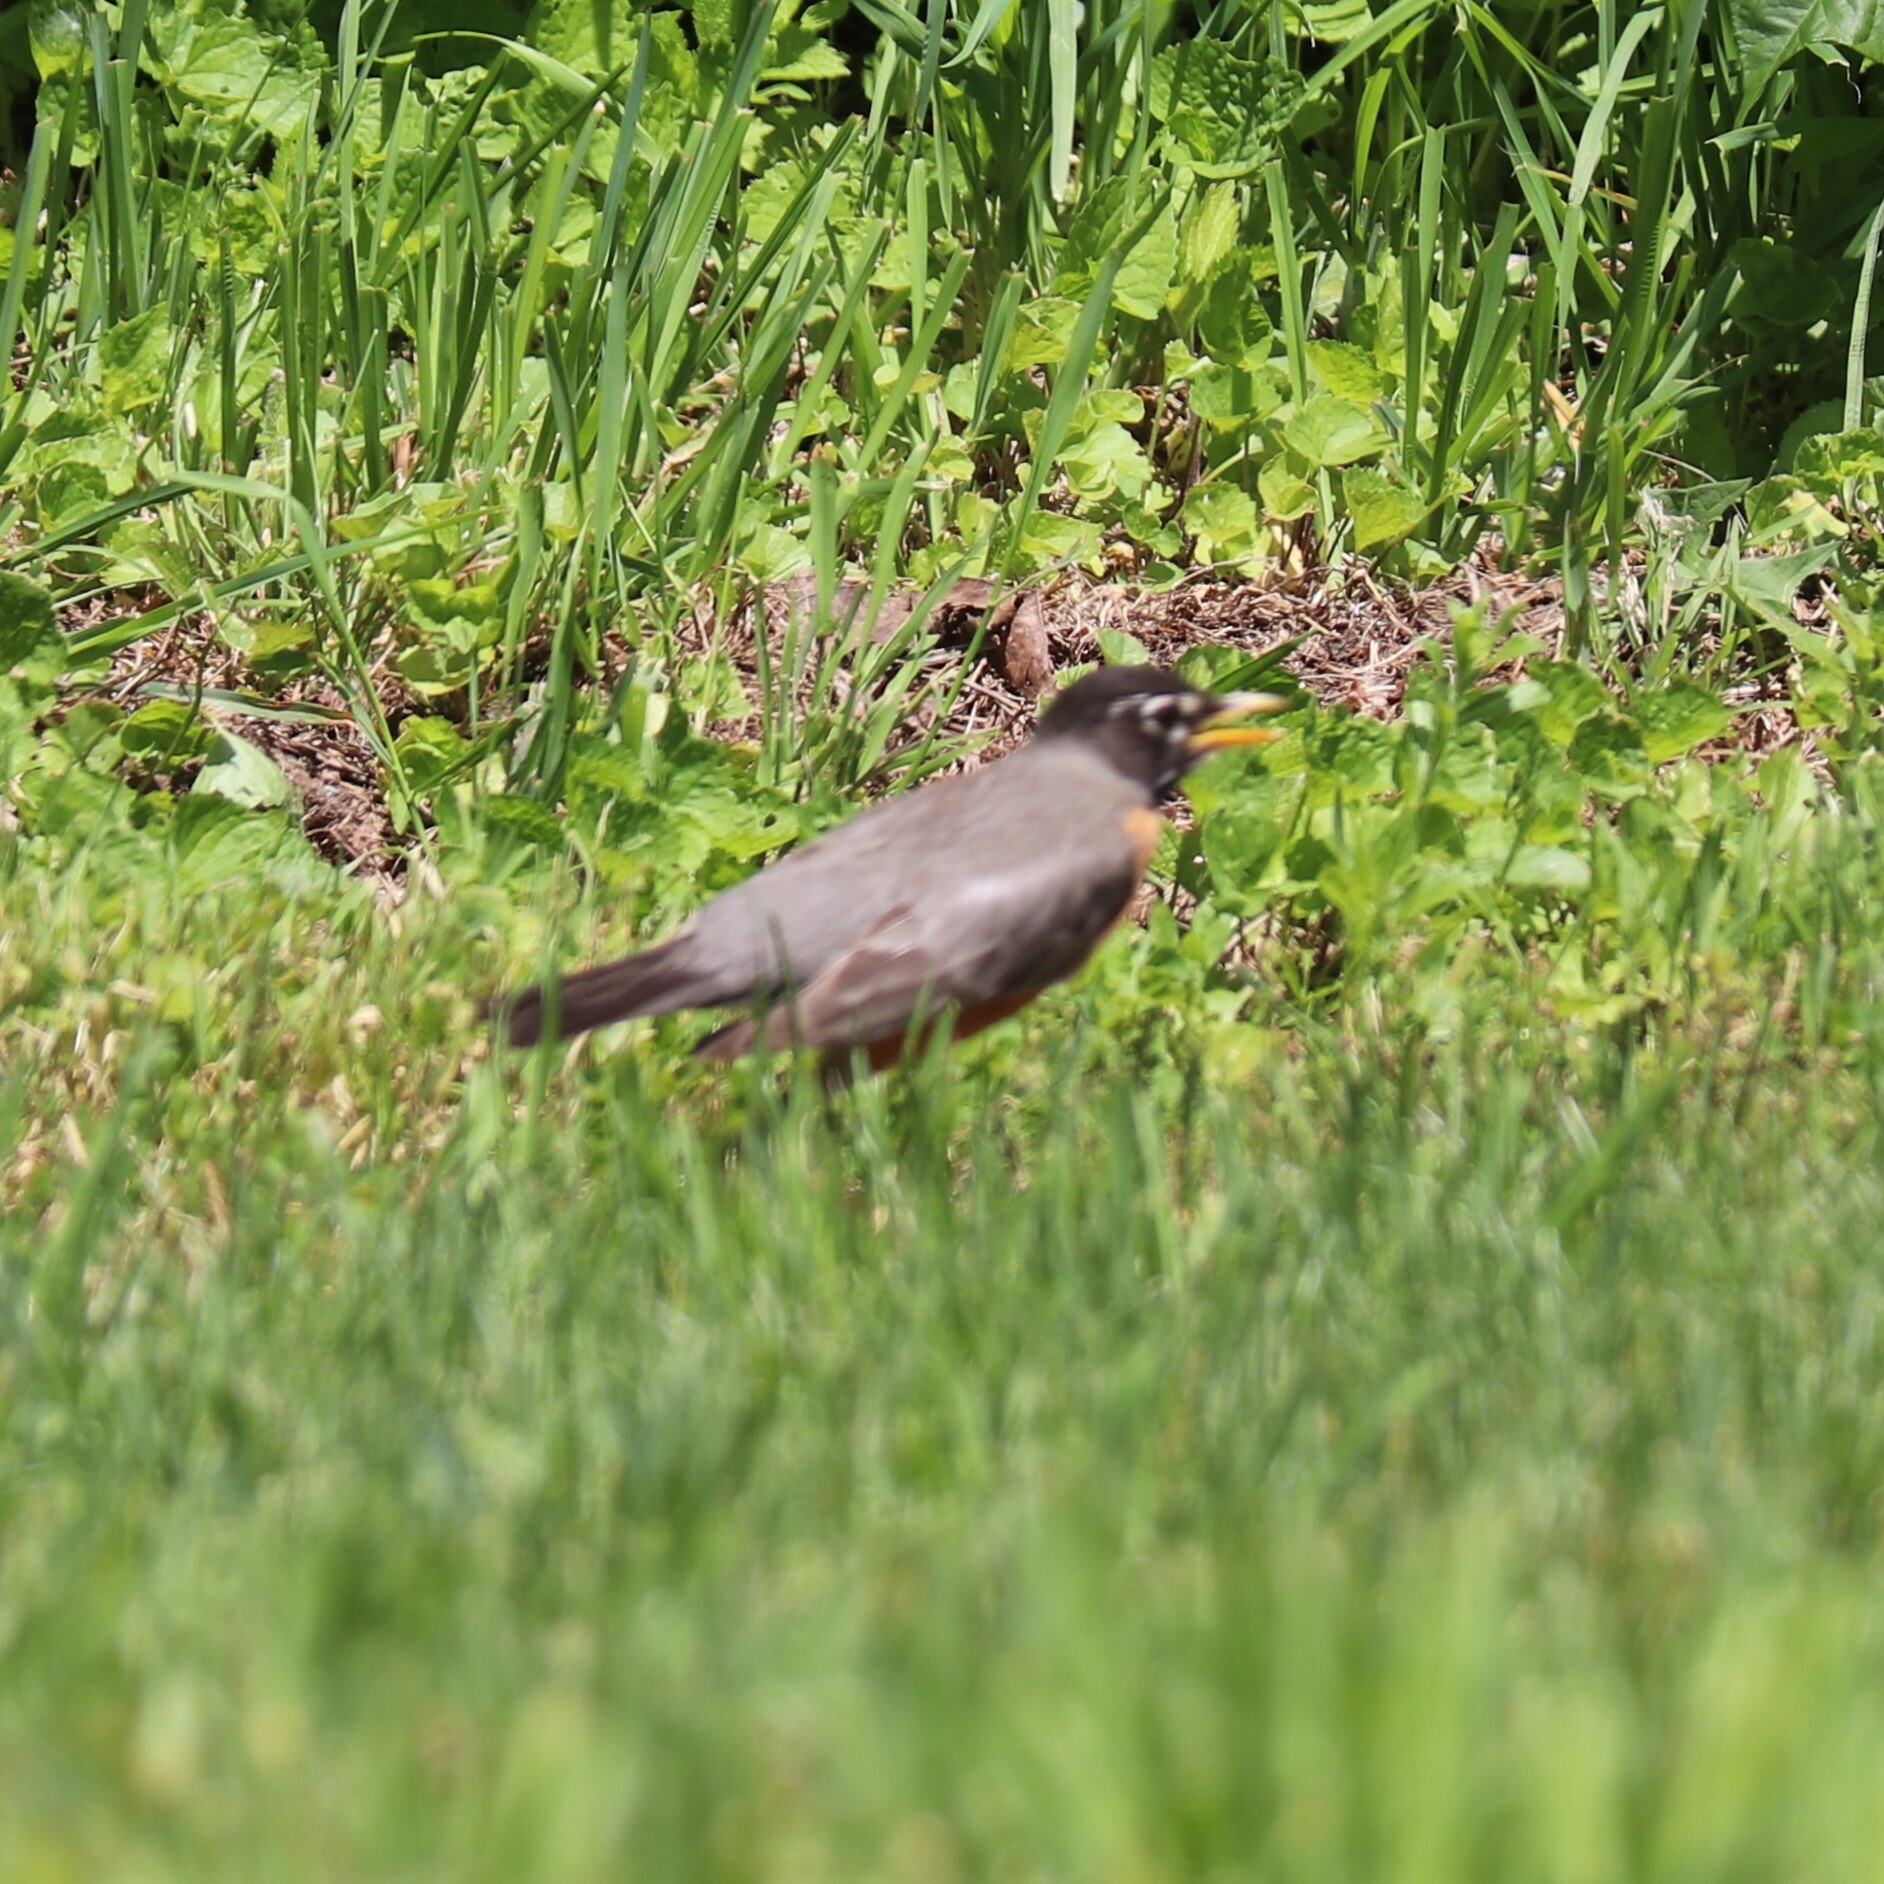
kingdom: Animalia
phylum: Chordata
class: Aves
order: Passeriformes
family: Turdidae
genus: Turdus
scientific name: Turdus migratorius
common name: American robin
